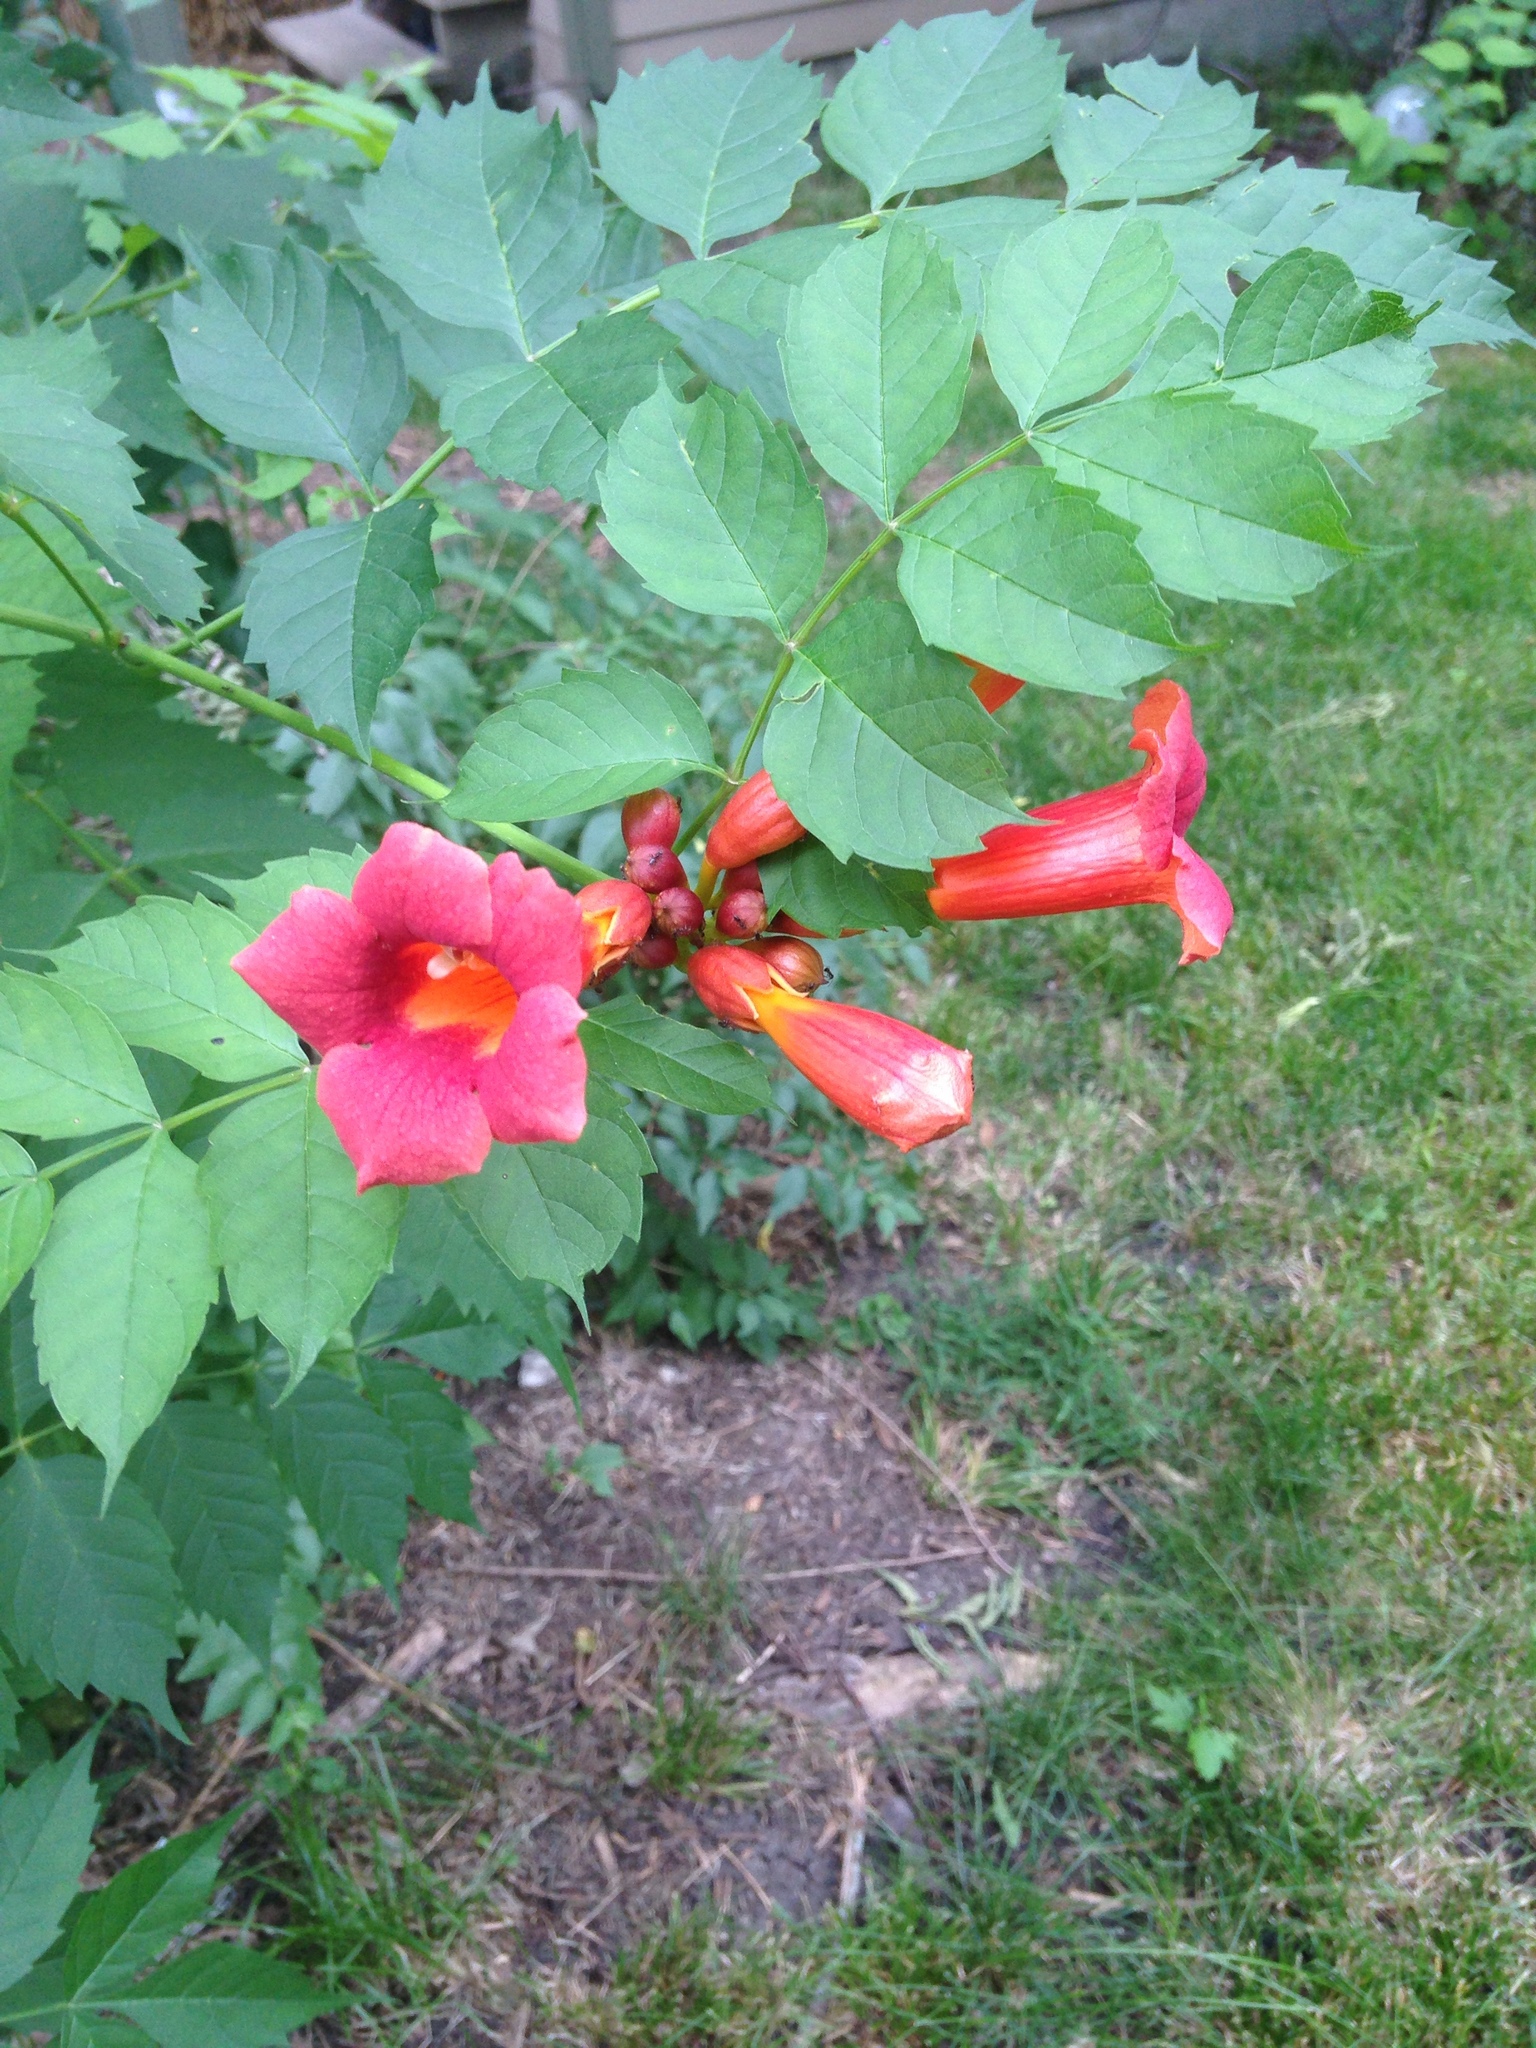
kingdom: Plantae
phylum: Tracheophyta
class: Magnoliopsida
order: Lamiales
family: Bignoniaceae
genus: Campsis
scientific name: Campsis radicans
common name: Trumpet-creeper
